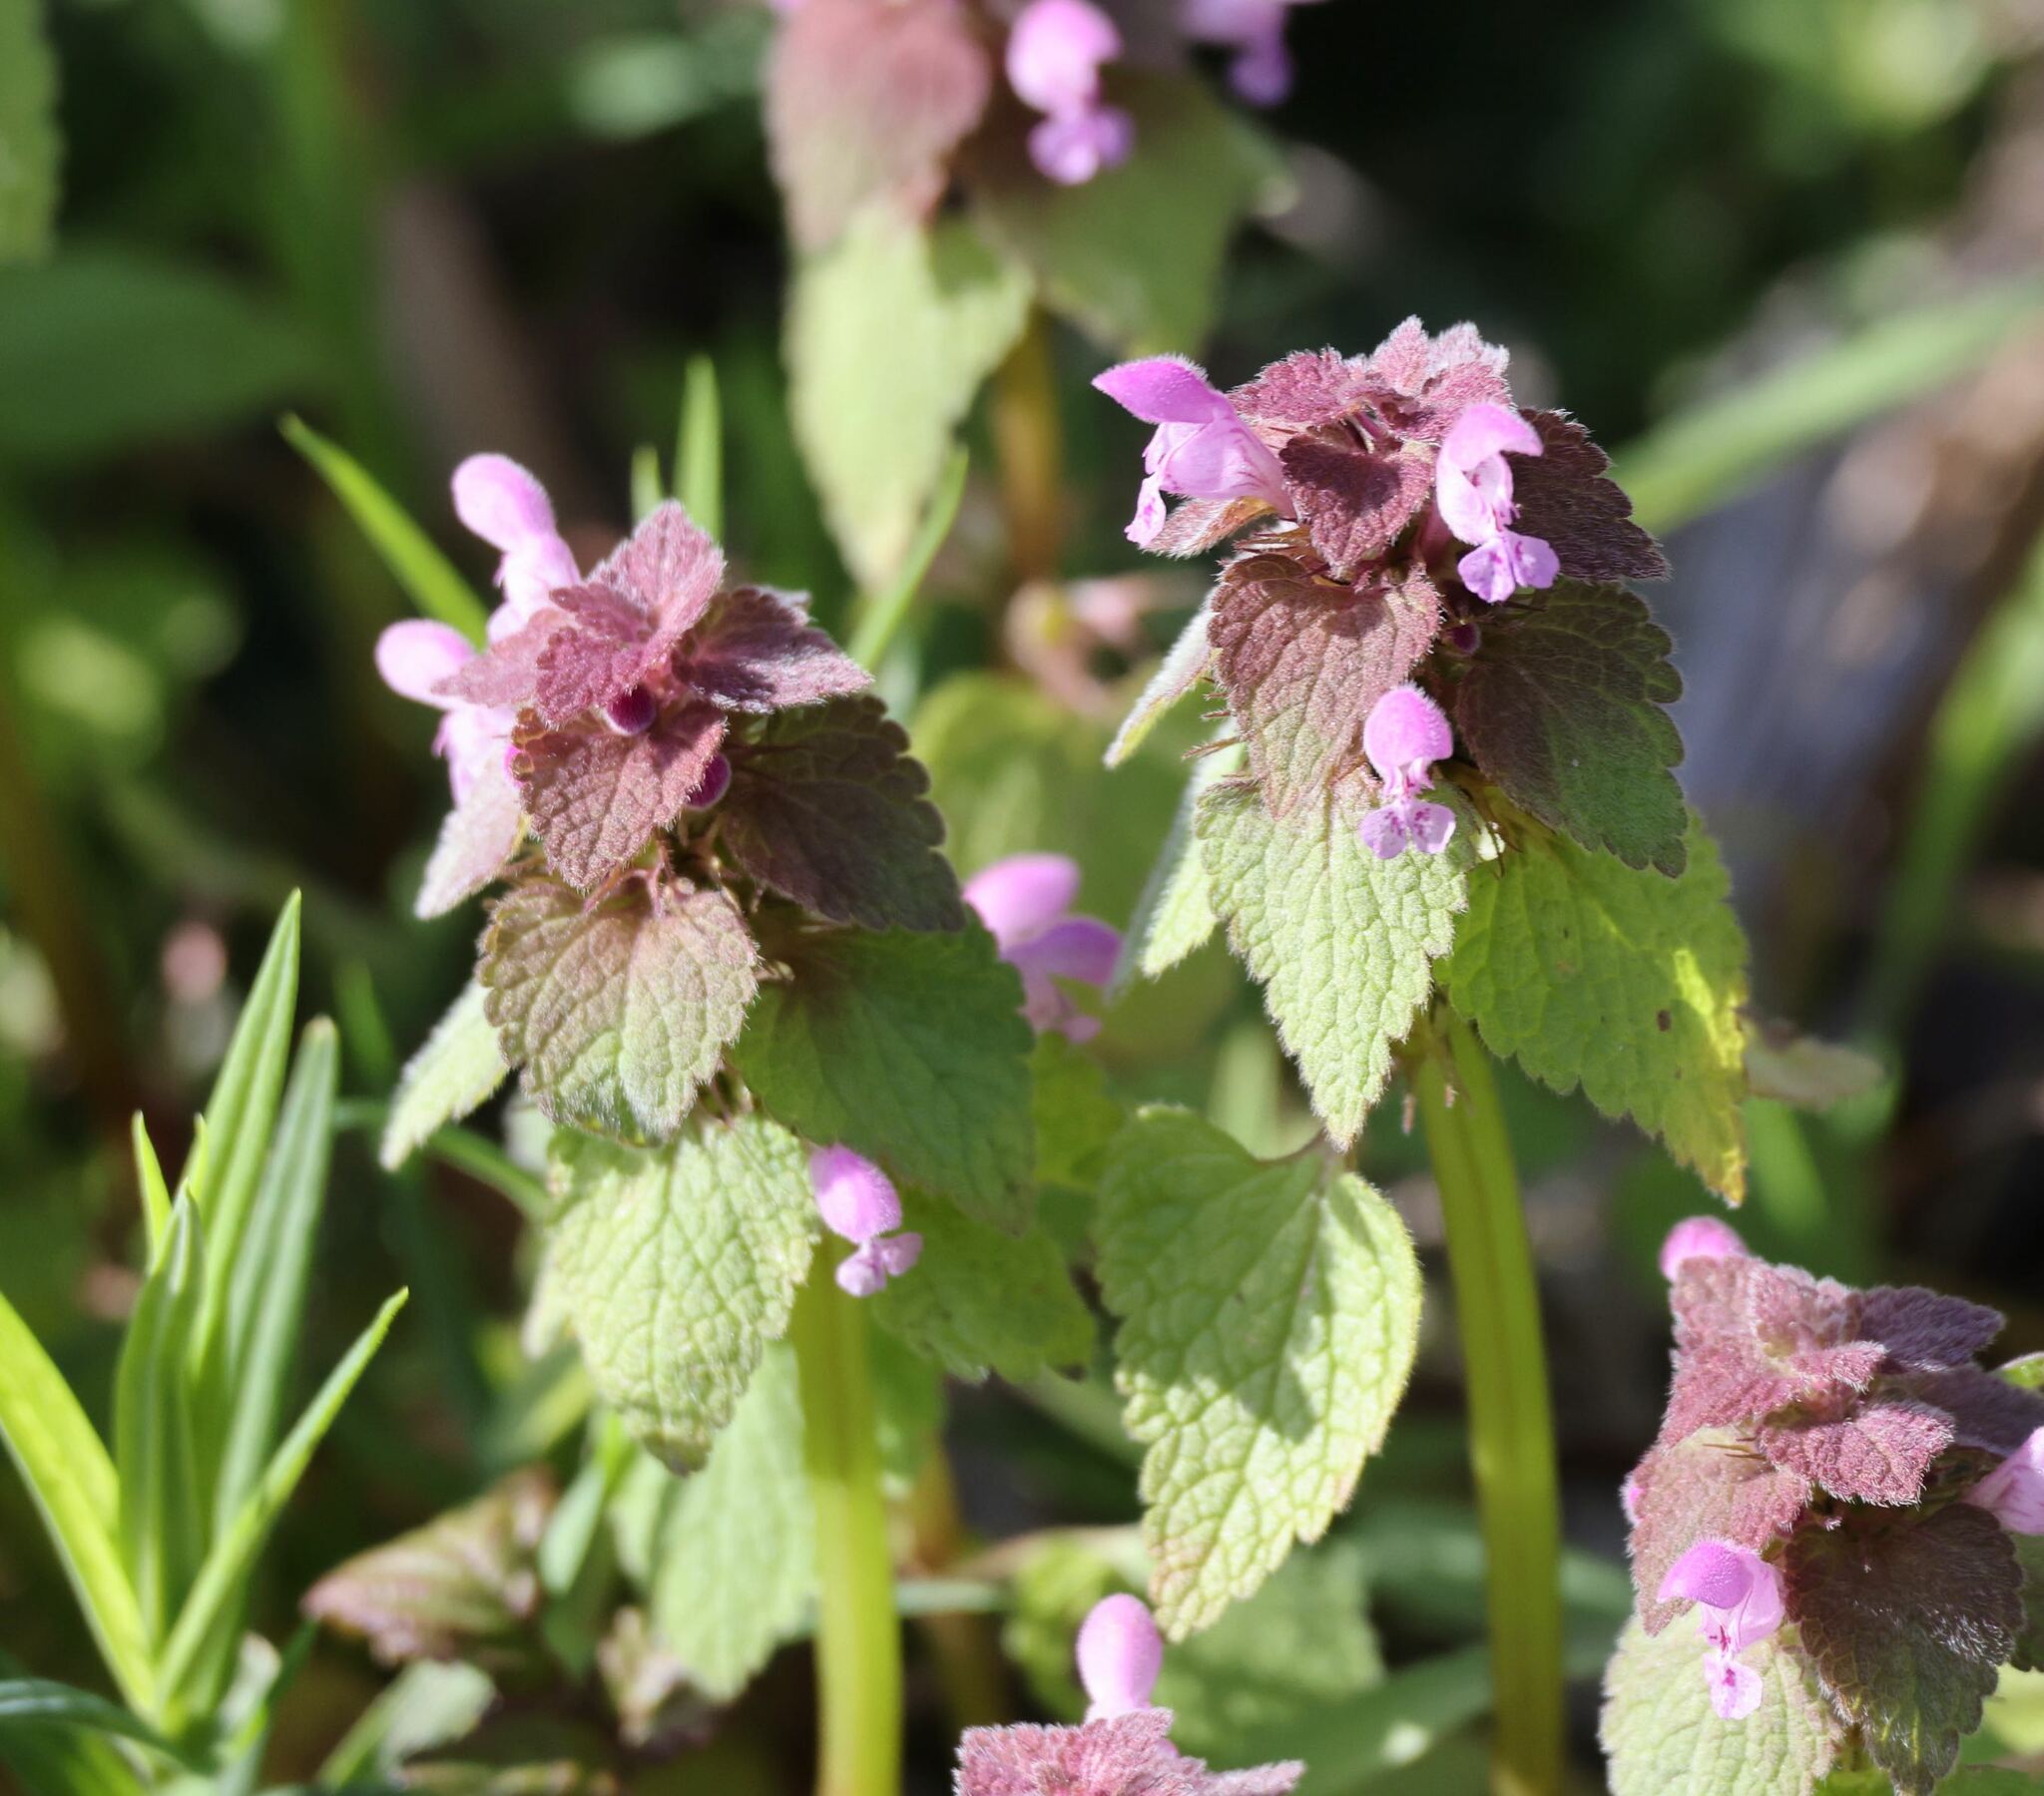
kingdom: Plantae
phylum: Tracheophyta
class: Magnoliopsida
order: Lamiales
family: Lamiaceae
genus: Lamium
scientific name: Lamium purpureum
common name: Red dead-nettle
